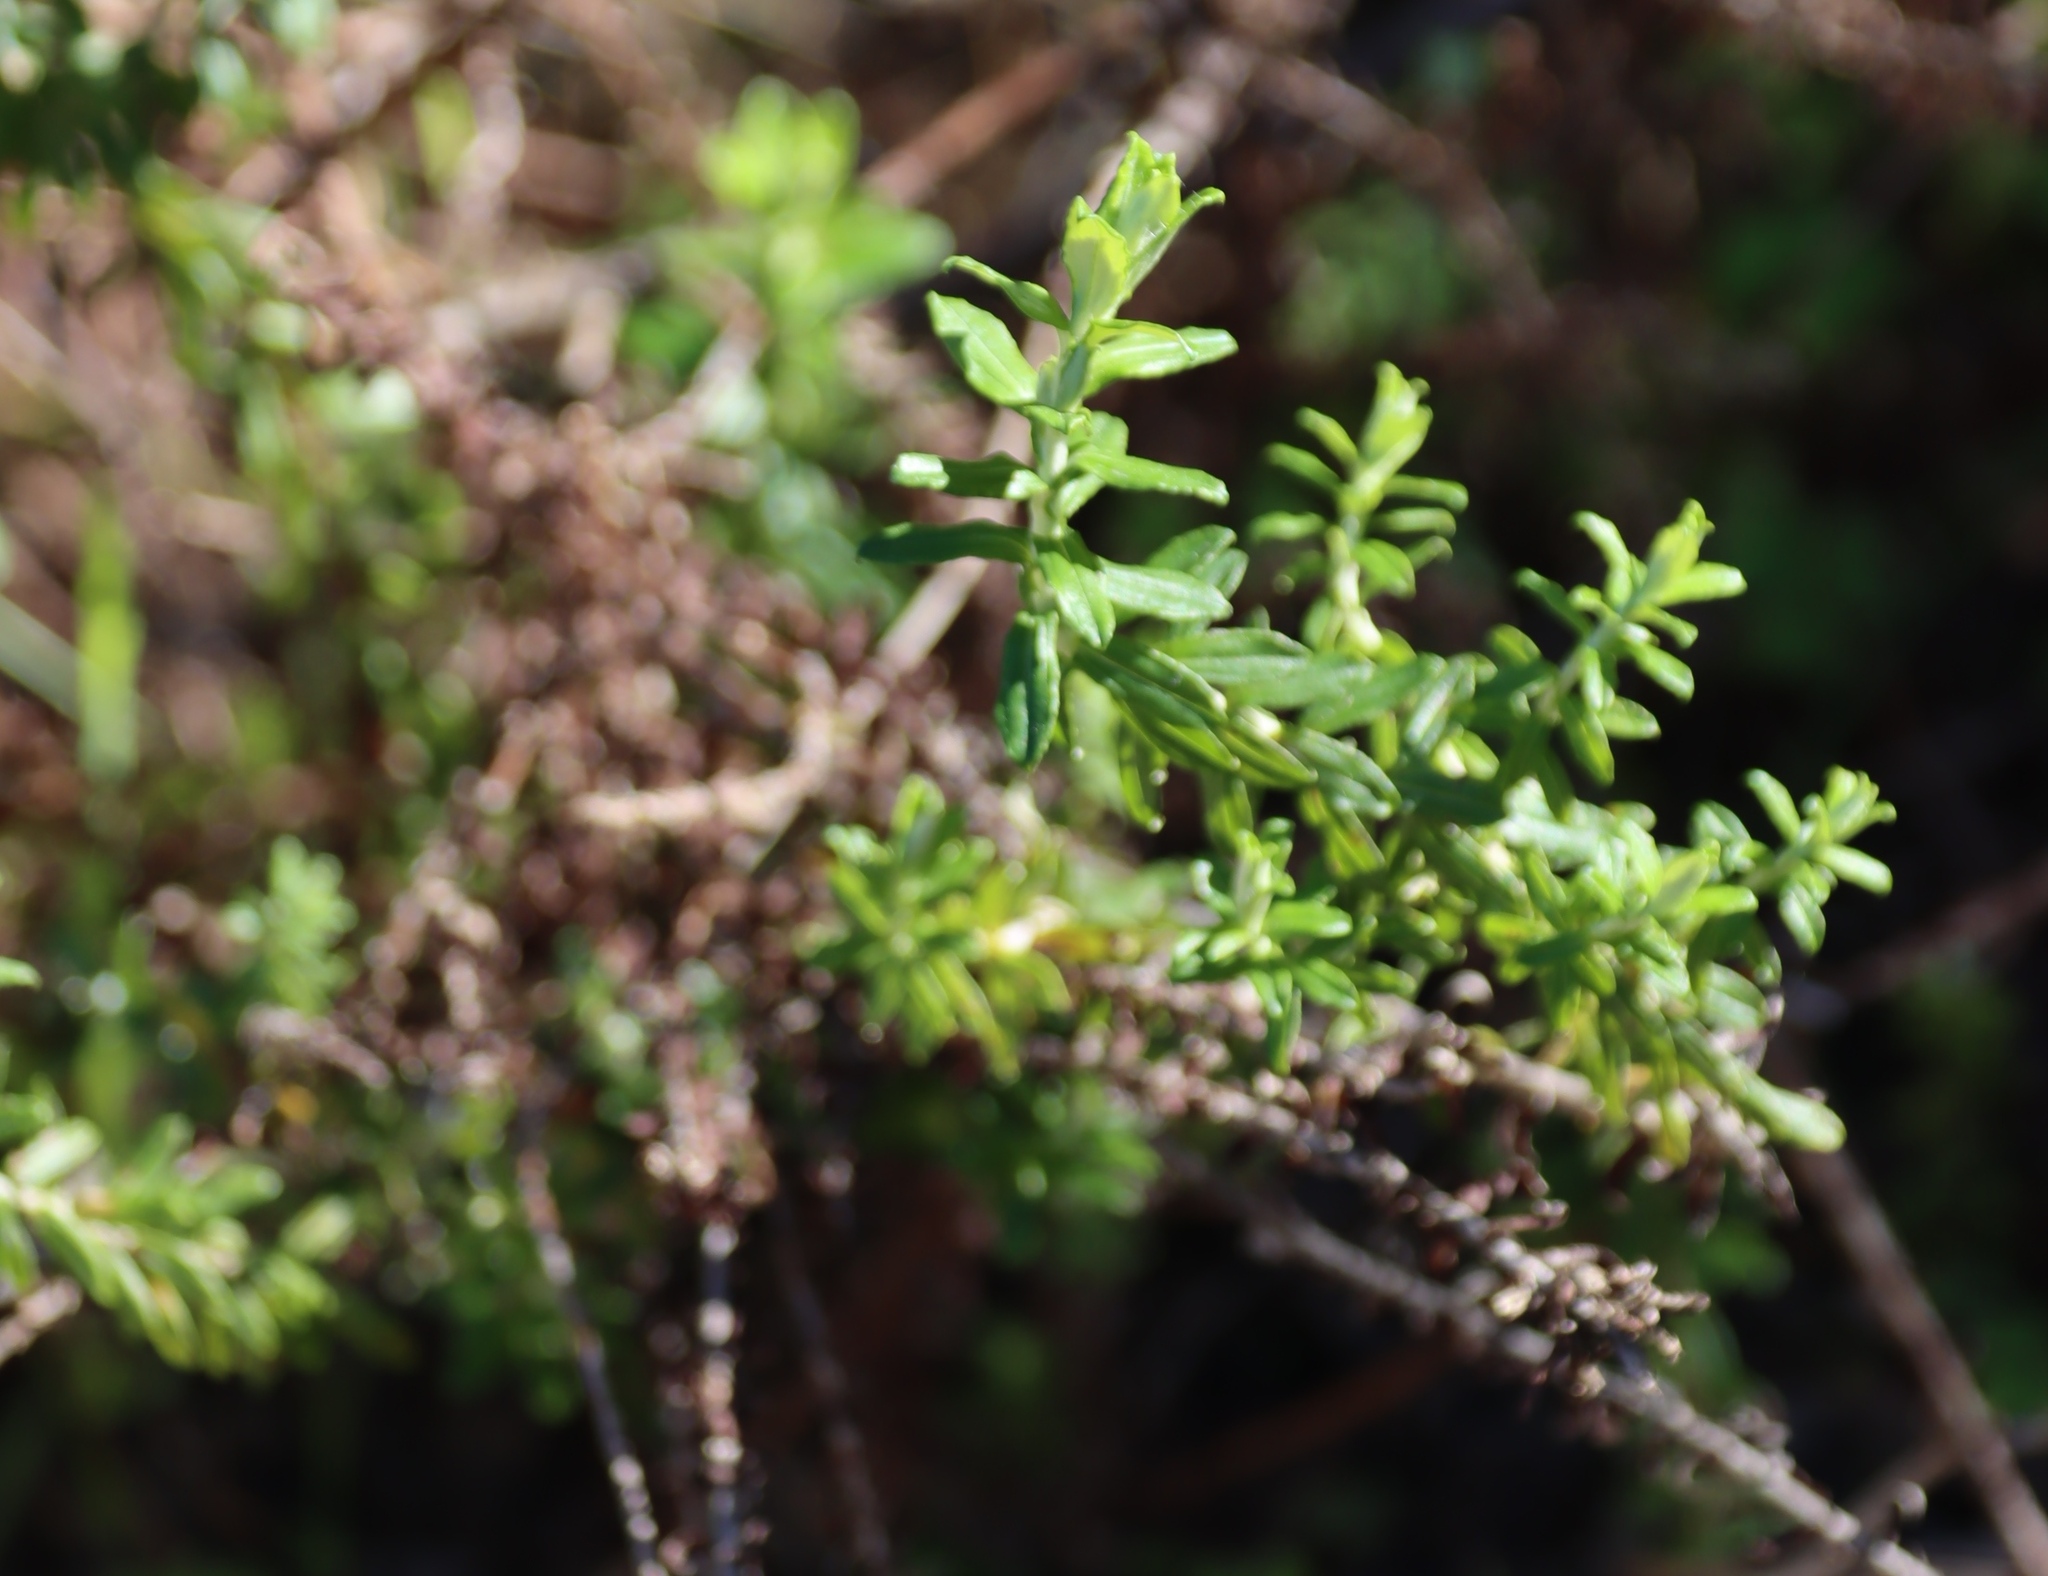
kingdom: Plantae
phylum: Tracheophyta
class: Magnoliopsida
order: Asterales
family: Asteraceae
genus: Helichrysum
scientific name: Helichrysum cymosum
